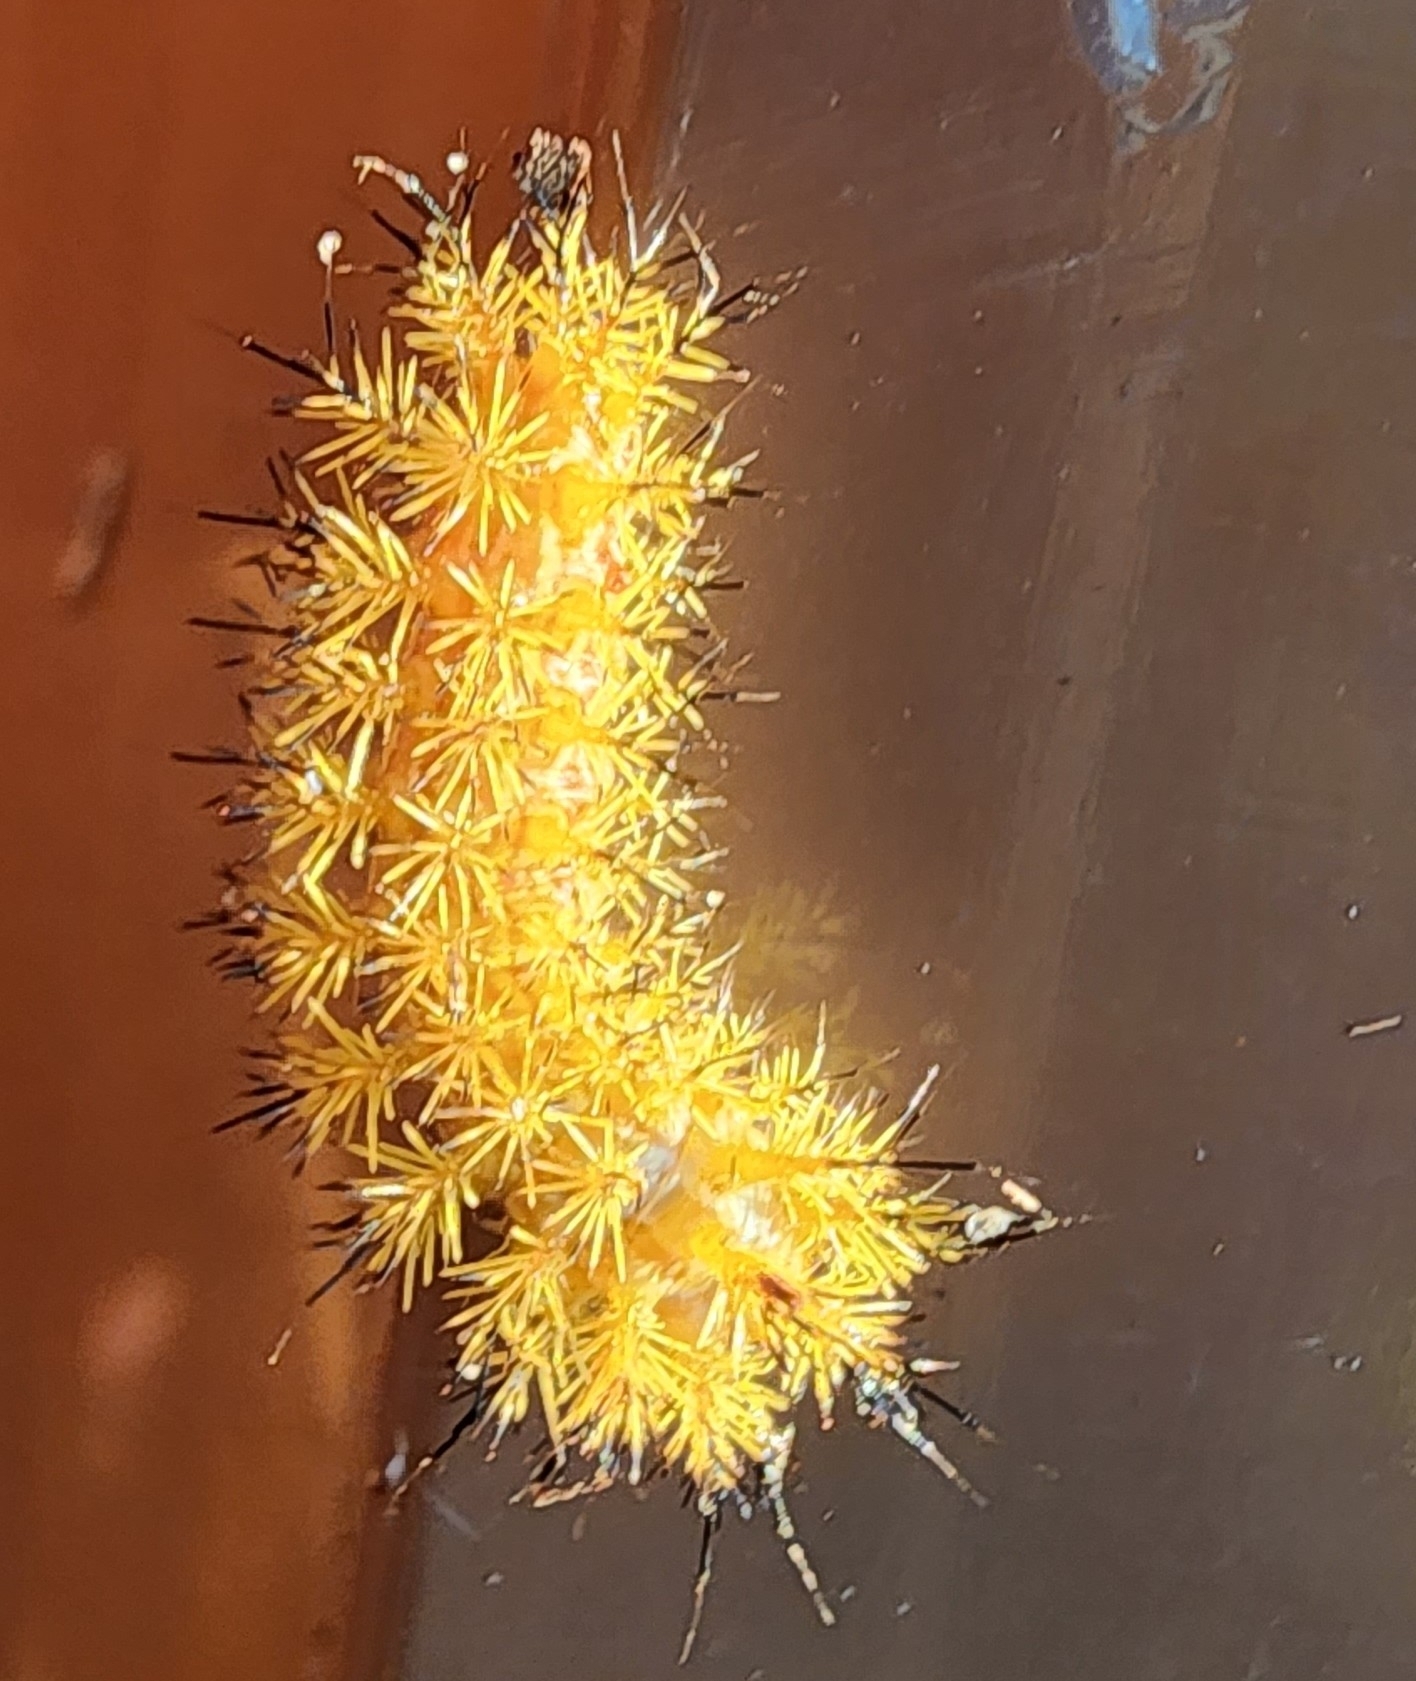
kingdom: Animalia
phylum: Arthropoda
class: Insecta
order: Lepidoptera
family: Saturniidae
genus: Automeris
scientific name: Automeris io
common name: Io moth
